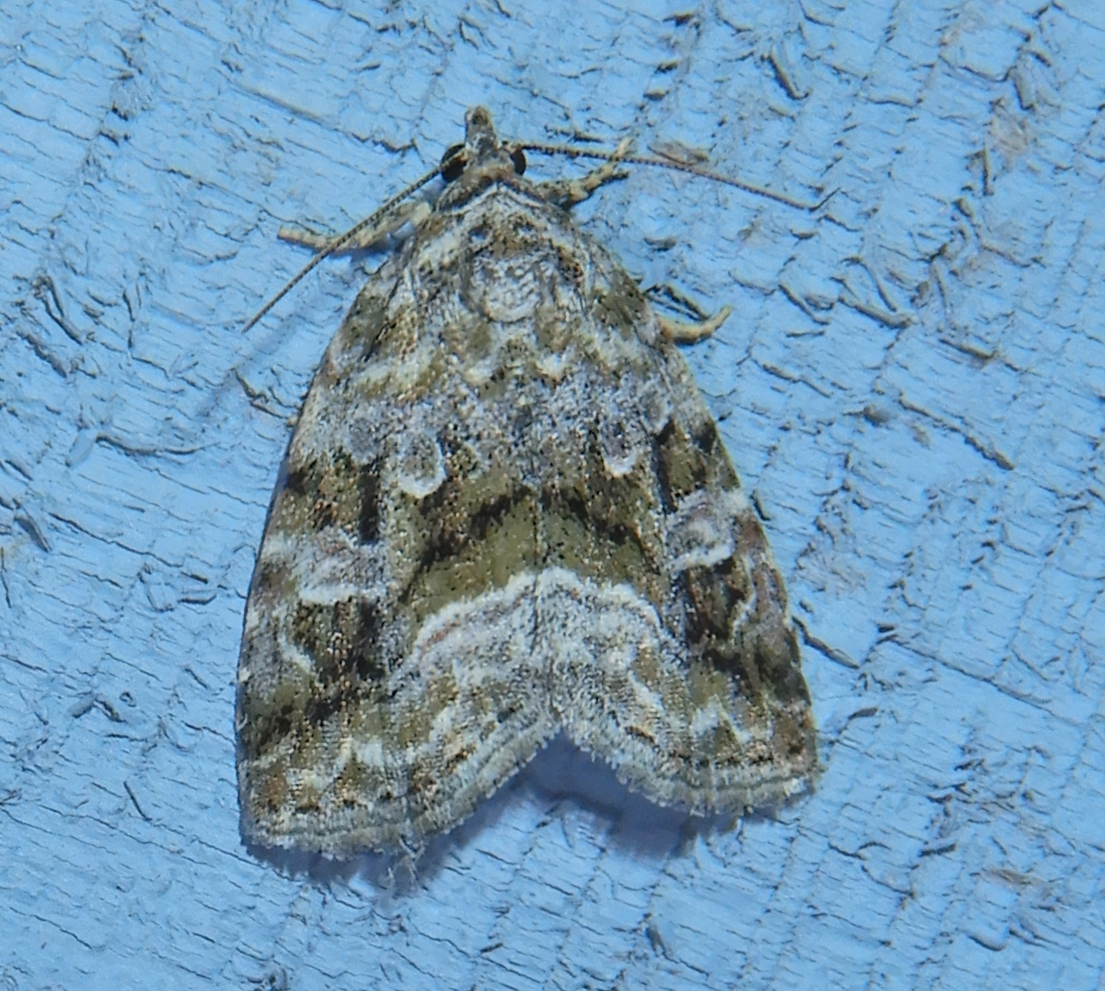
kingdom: Animalia
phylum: Arthropoda
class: Insecta
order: Lepidoptera
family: Noctuidae
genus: Protodeltote
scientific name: Protodeltote muscosula
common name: Large mossy glyph
